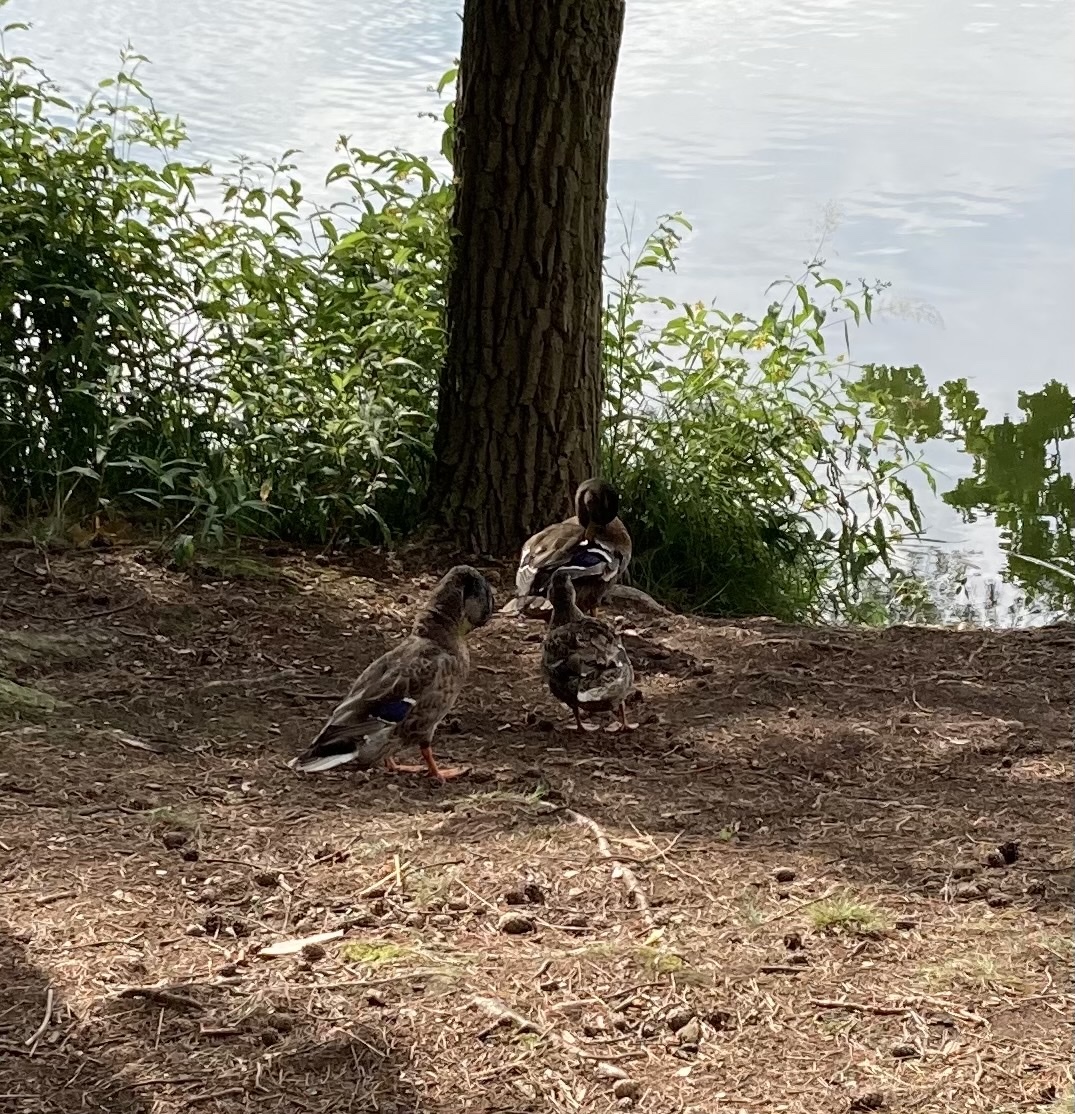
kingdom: Animalia
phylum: Chordata
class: Aves
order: Anseriformes
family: Anatidae
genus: Anas
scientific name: Anas platyrhynchos
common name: Mallard
